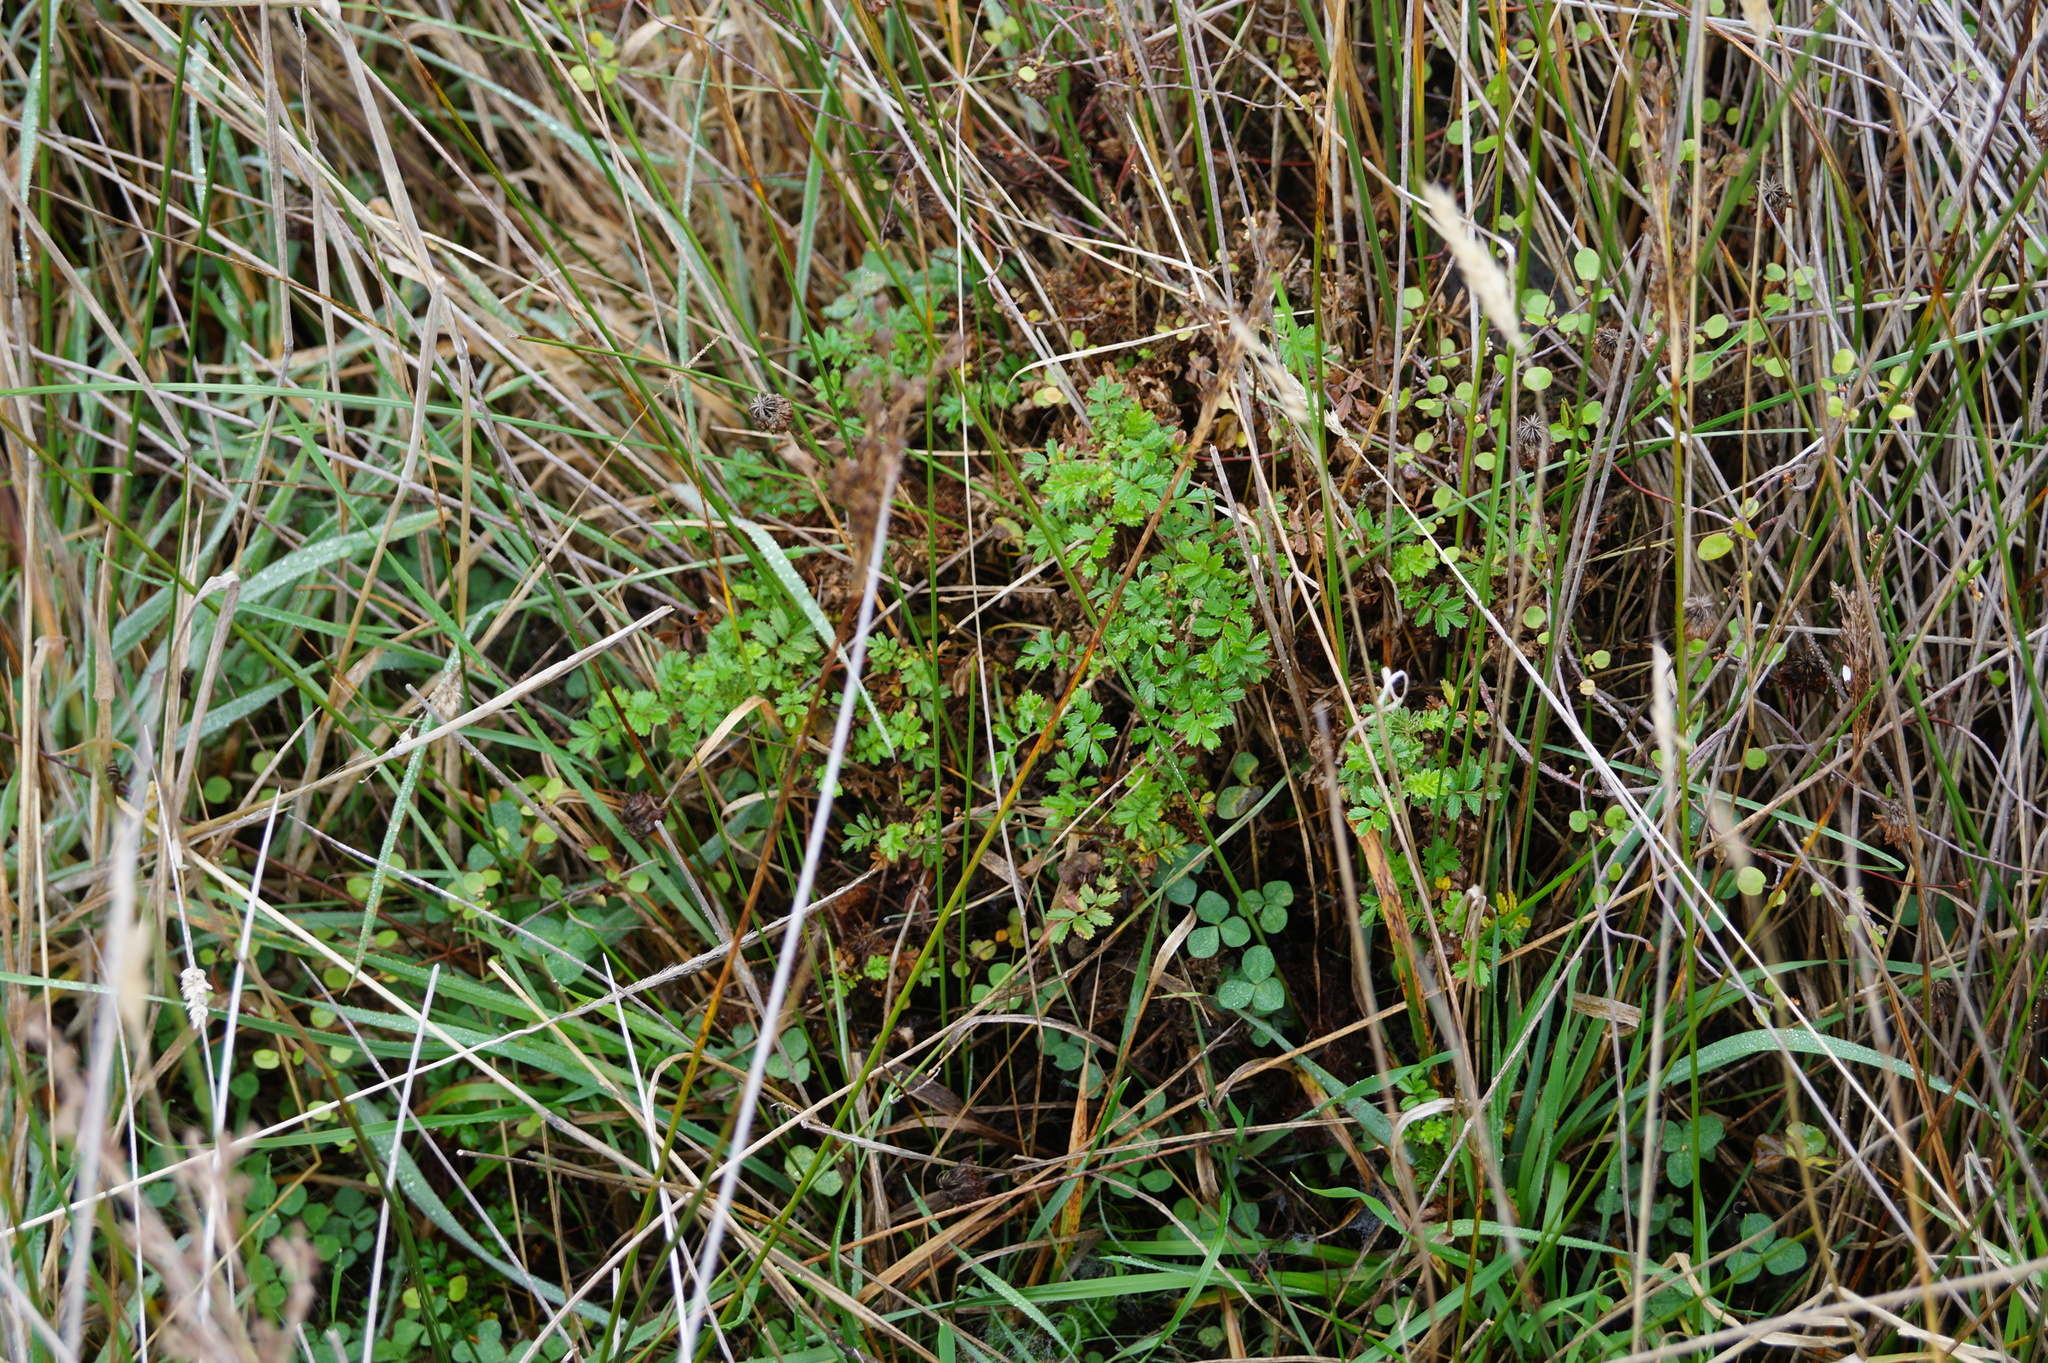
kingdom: Plantae
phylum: Tracheophyta
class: Magnoliopsida
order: Rosales
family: Rosaceae
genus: Acaena
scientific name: Acaena novae-zelandiae
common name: Pirri-pirri-bur
